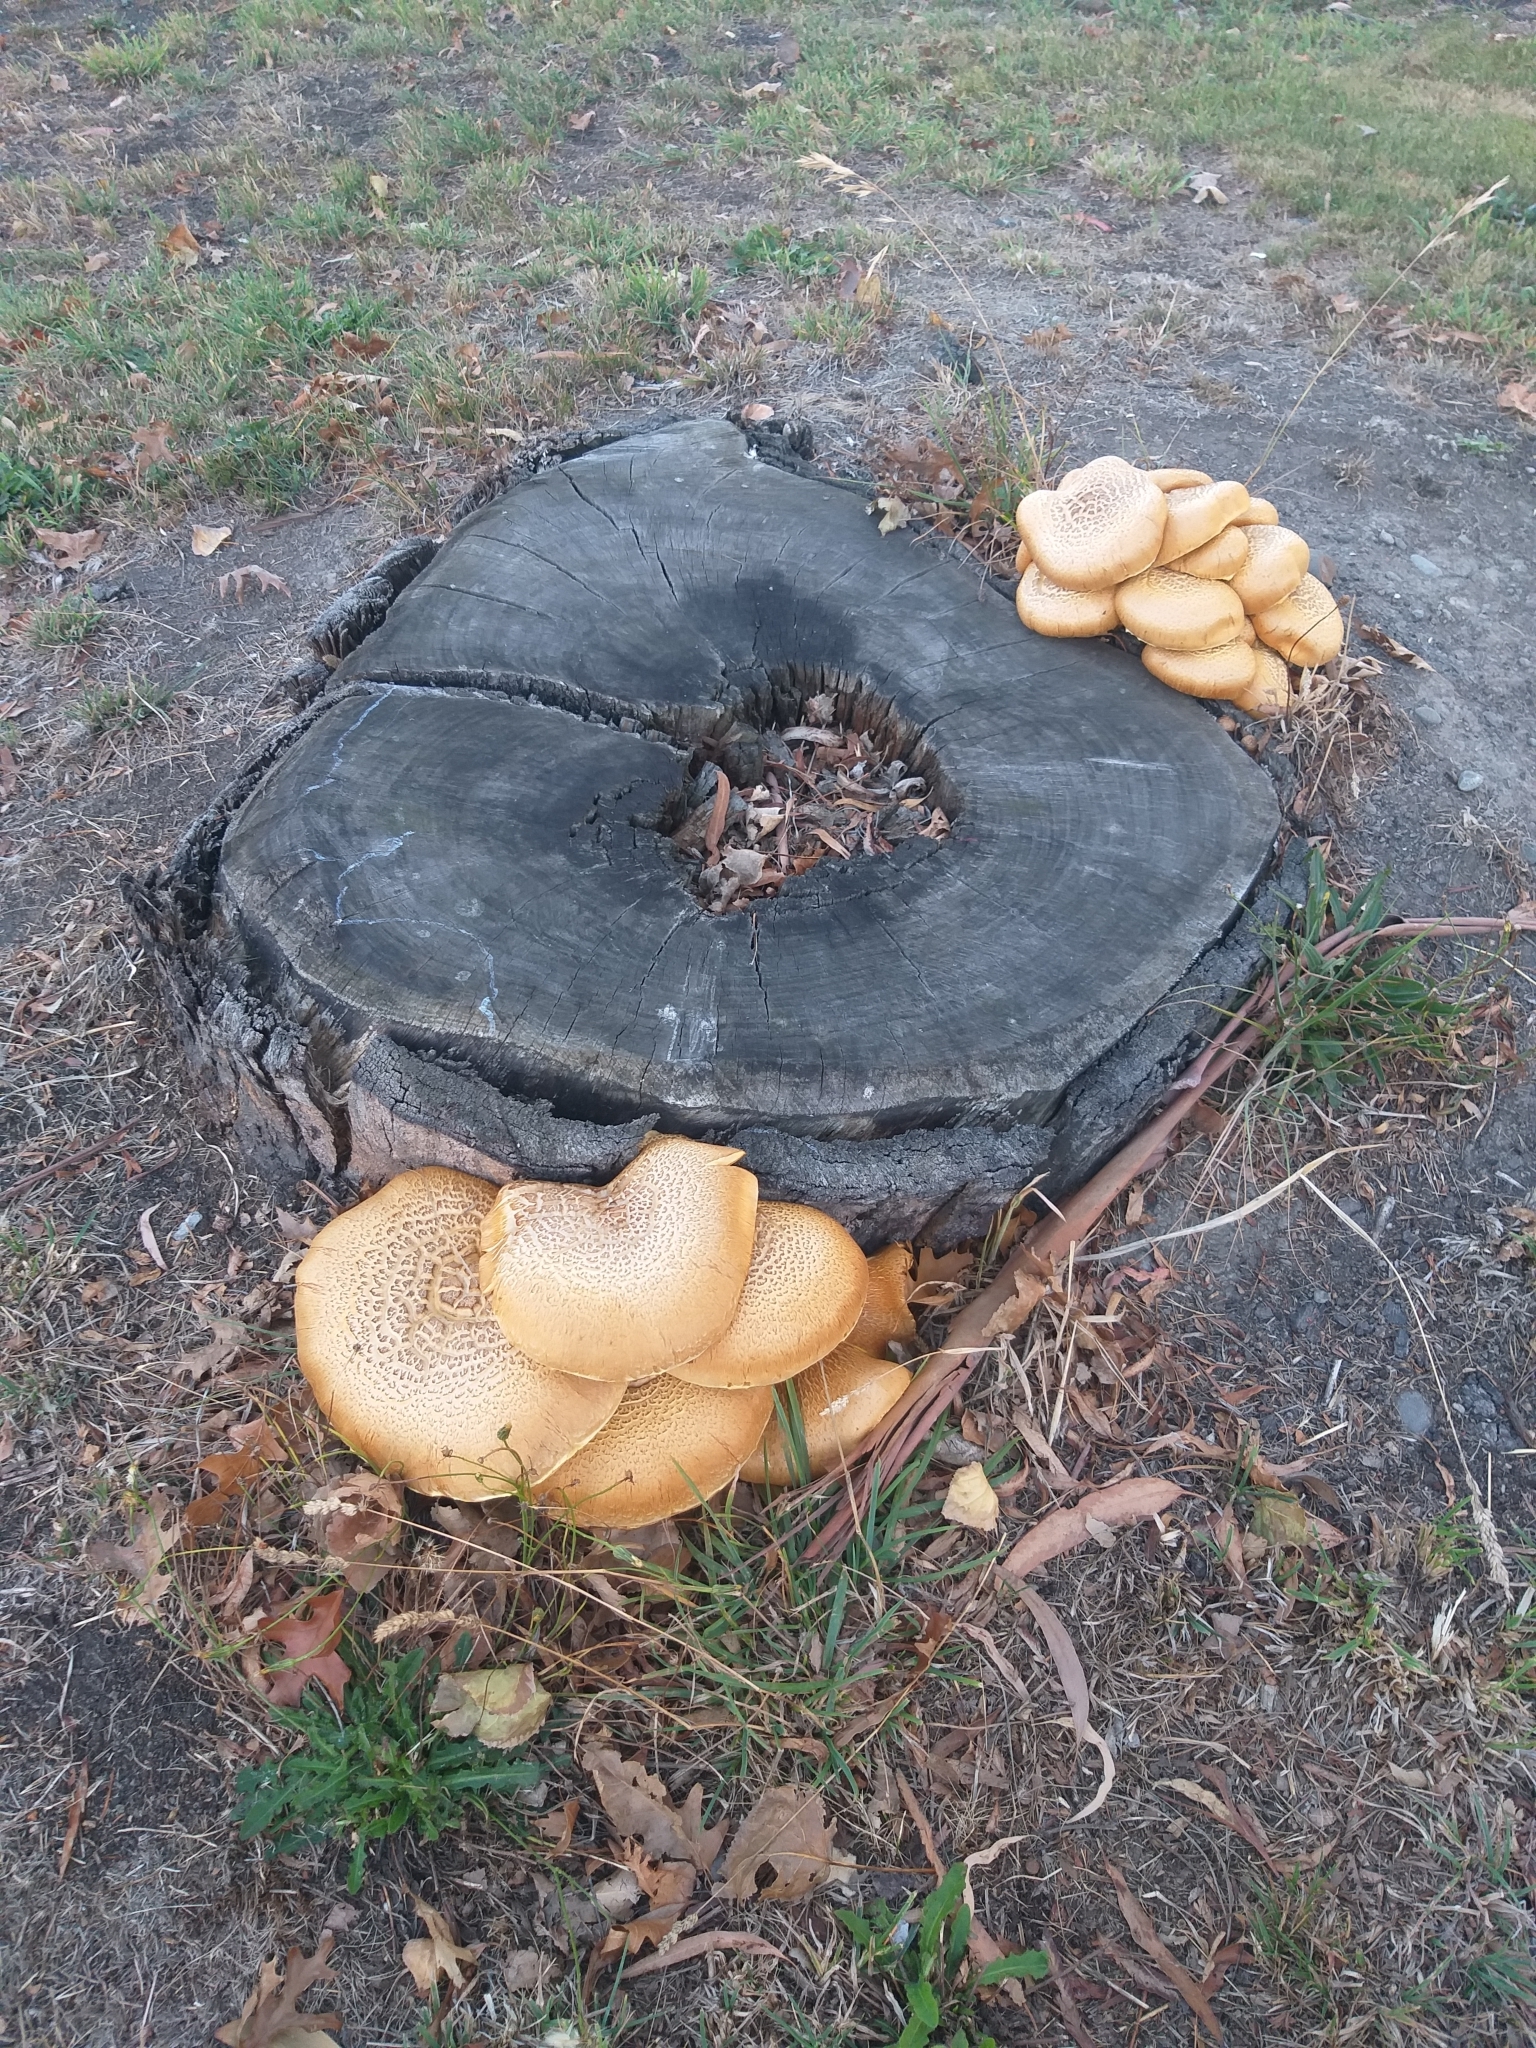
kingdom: Fungi
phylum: Basidiomycota
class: Agaricomycetes
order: Agaricales
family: Hymenogastraceae
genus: Gymnopilus
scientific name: Gymnopilus junonius
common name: Spectacular rustgill
